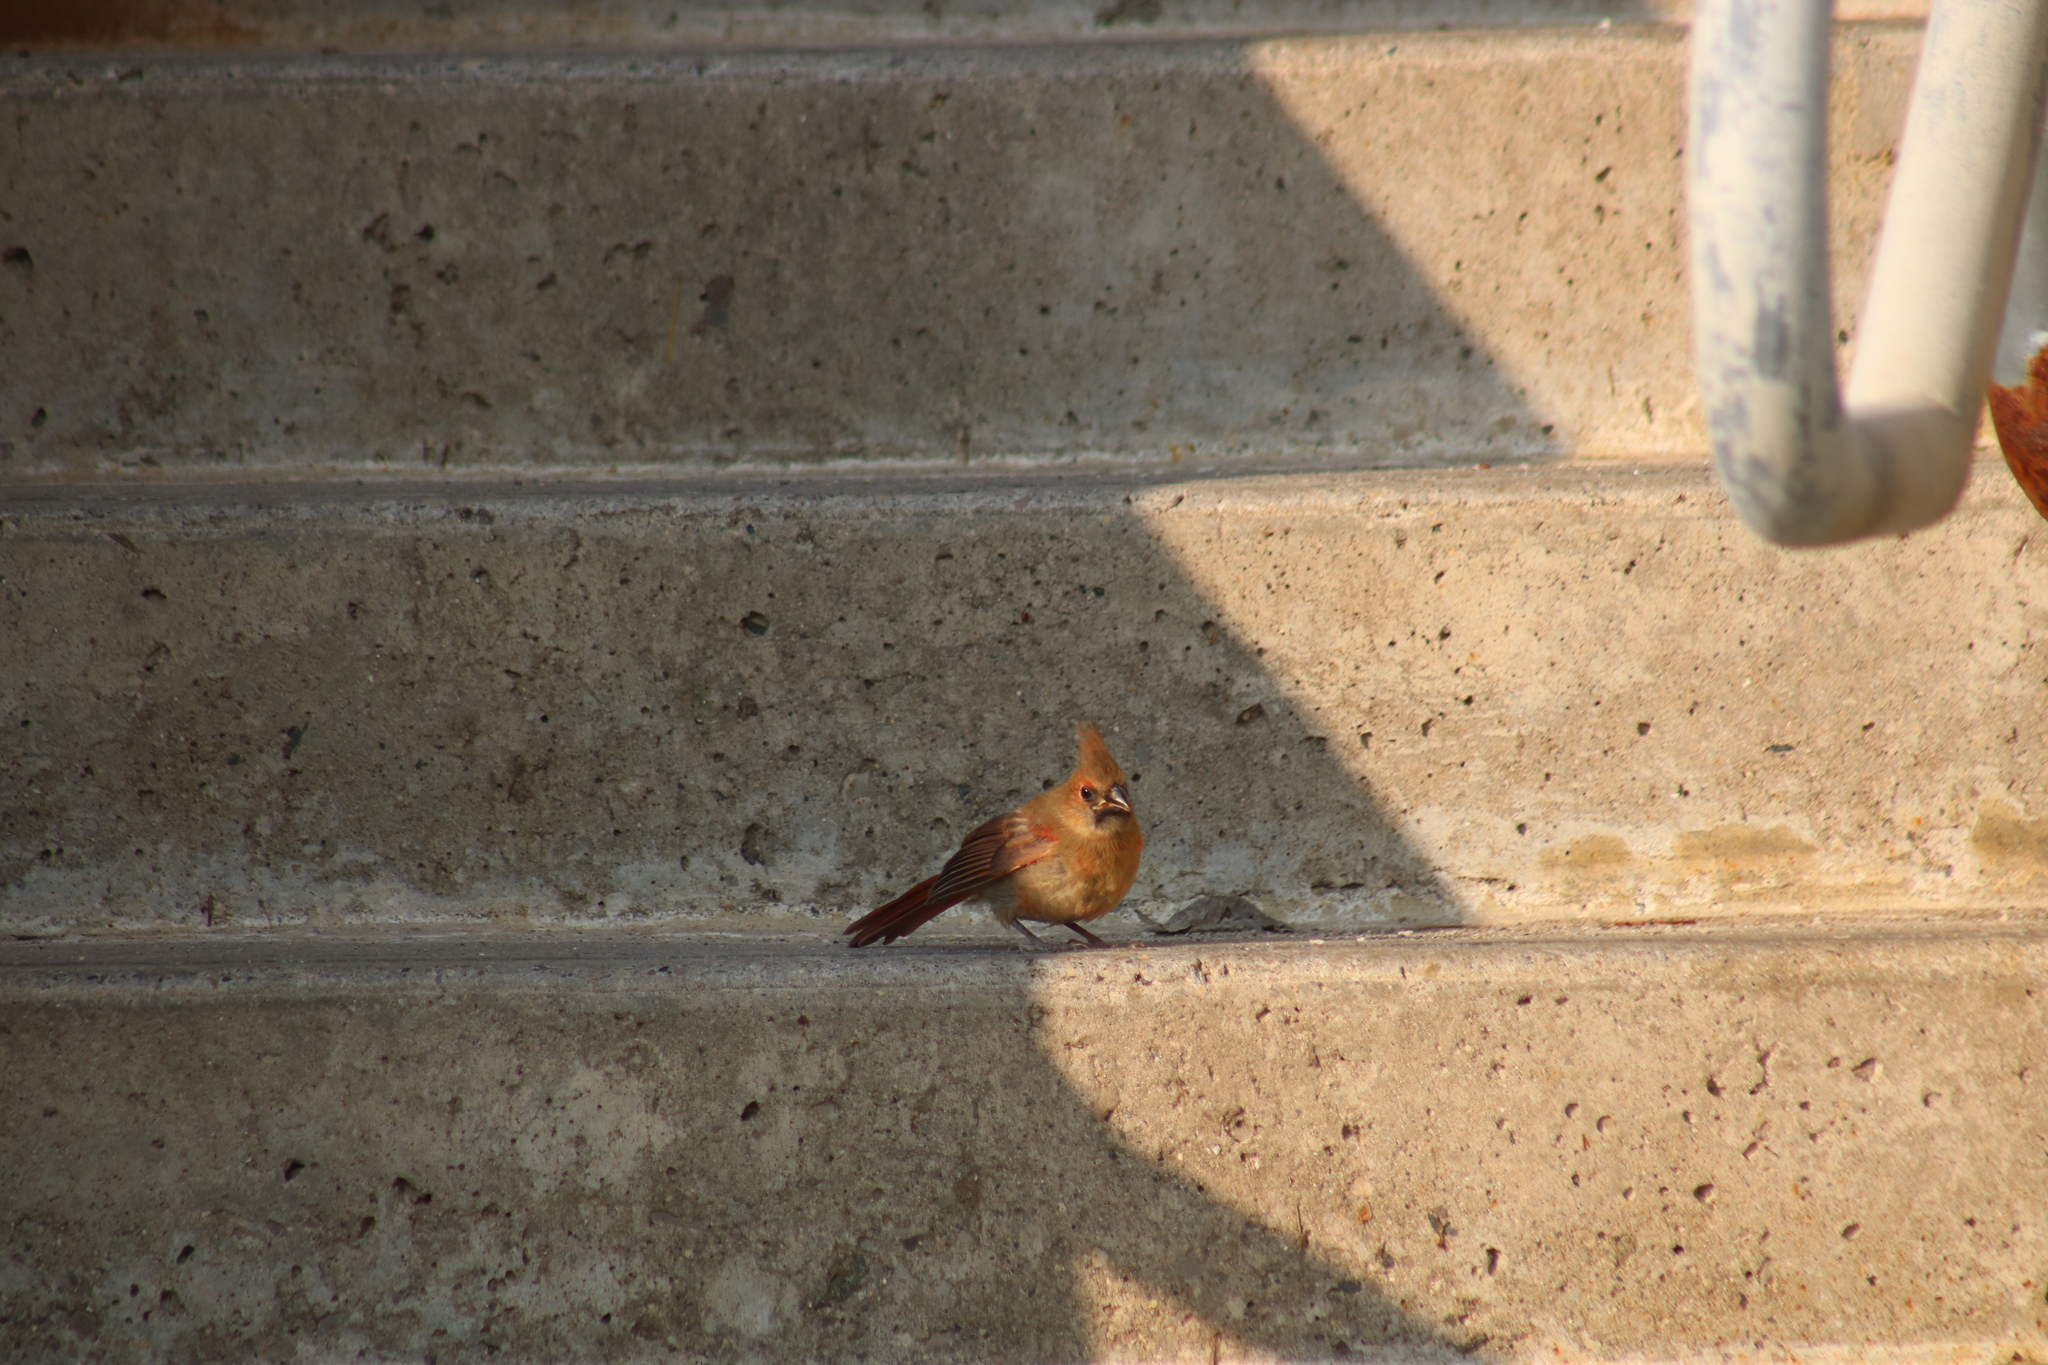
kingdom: Animalia
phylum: Chordata
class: Aves
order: Passeriformes
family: Cardinalidae
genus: Cardinalis
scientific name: Cardinalis cardinalis
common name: Northern cardinal
